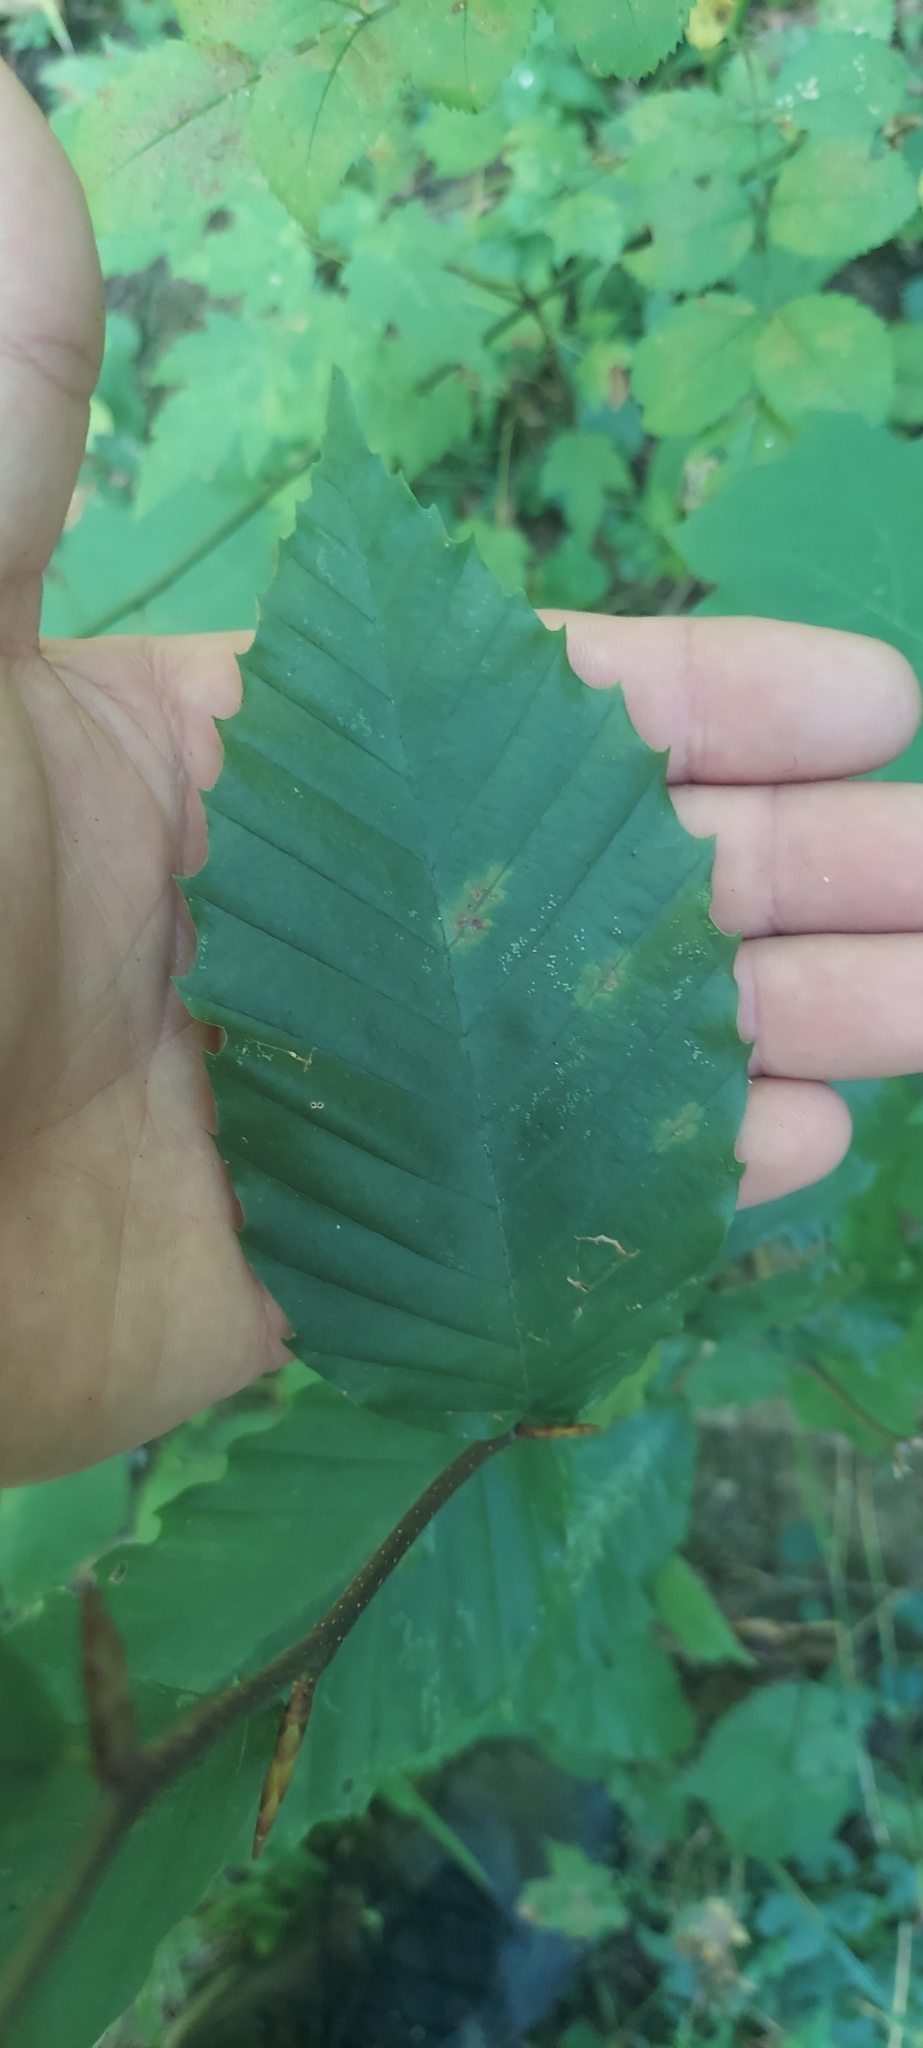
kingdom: Plantae
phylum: Tracheophyta
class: Magnoliopsida
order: Fagales
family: Fagaceae
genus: Fagus
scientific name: Fagus grandifolia
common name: American beech
